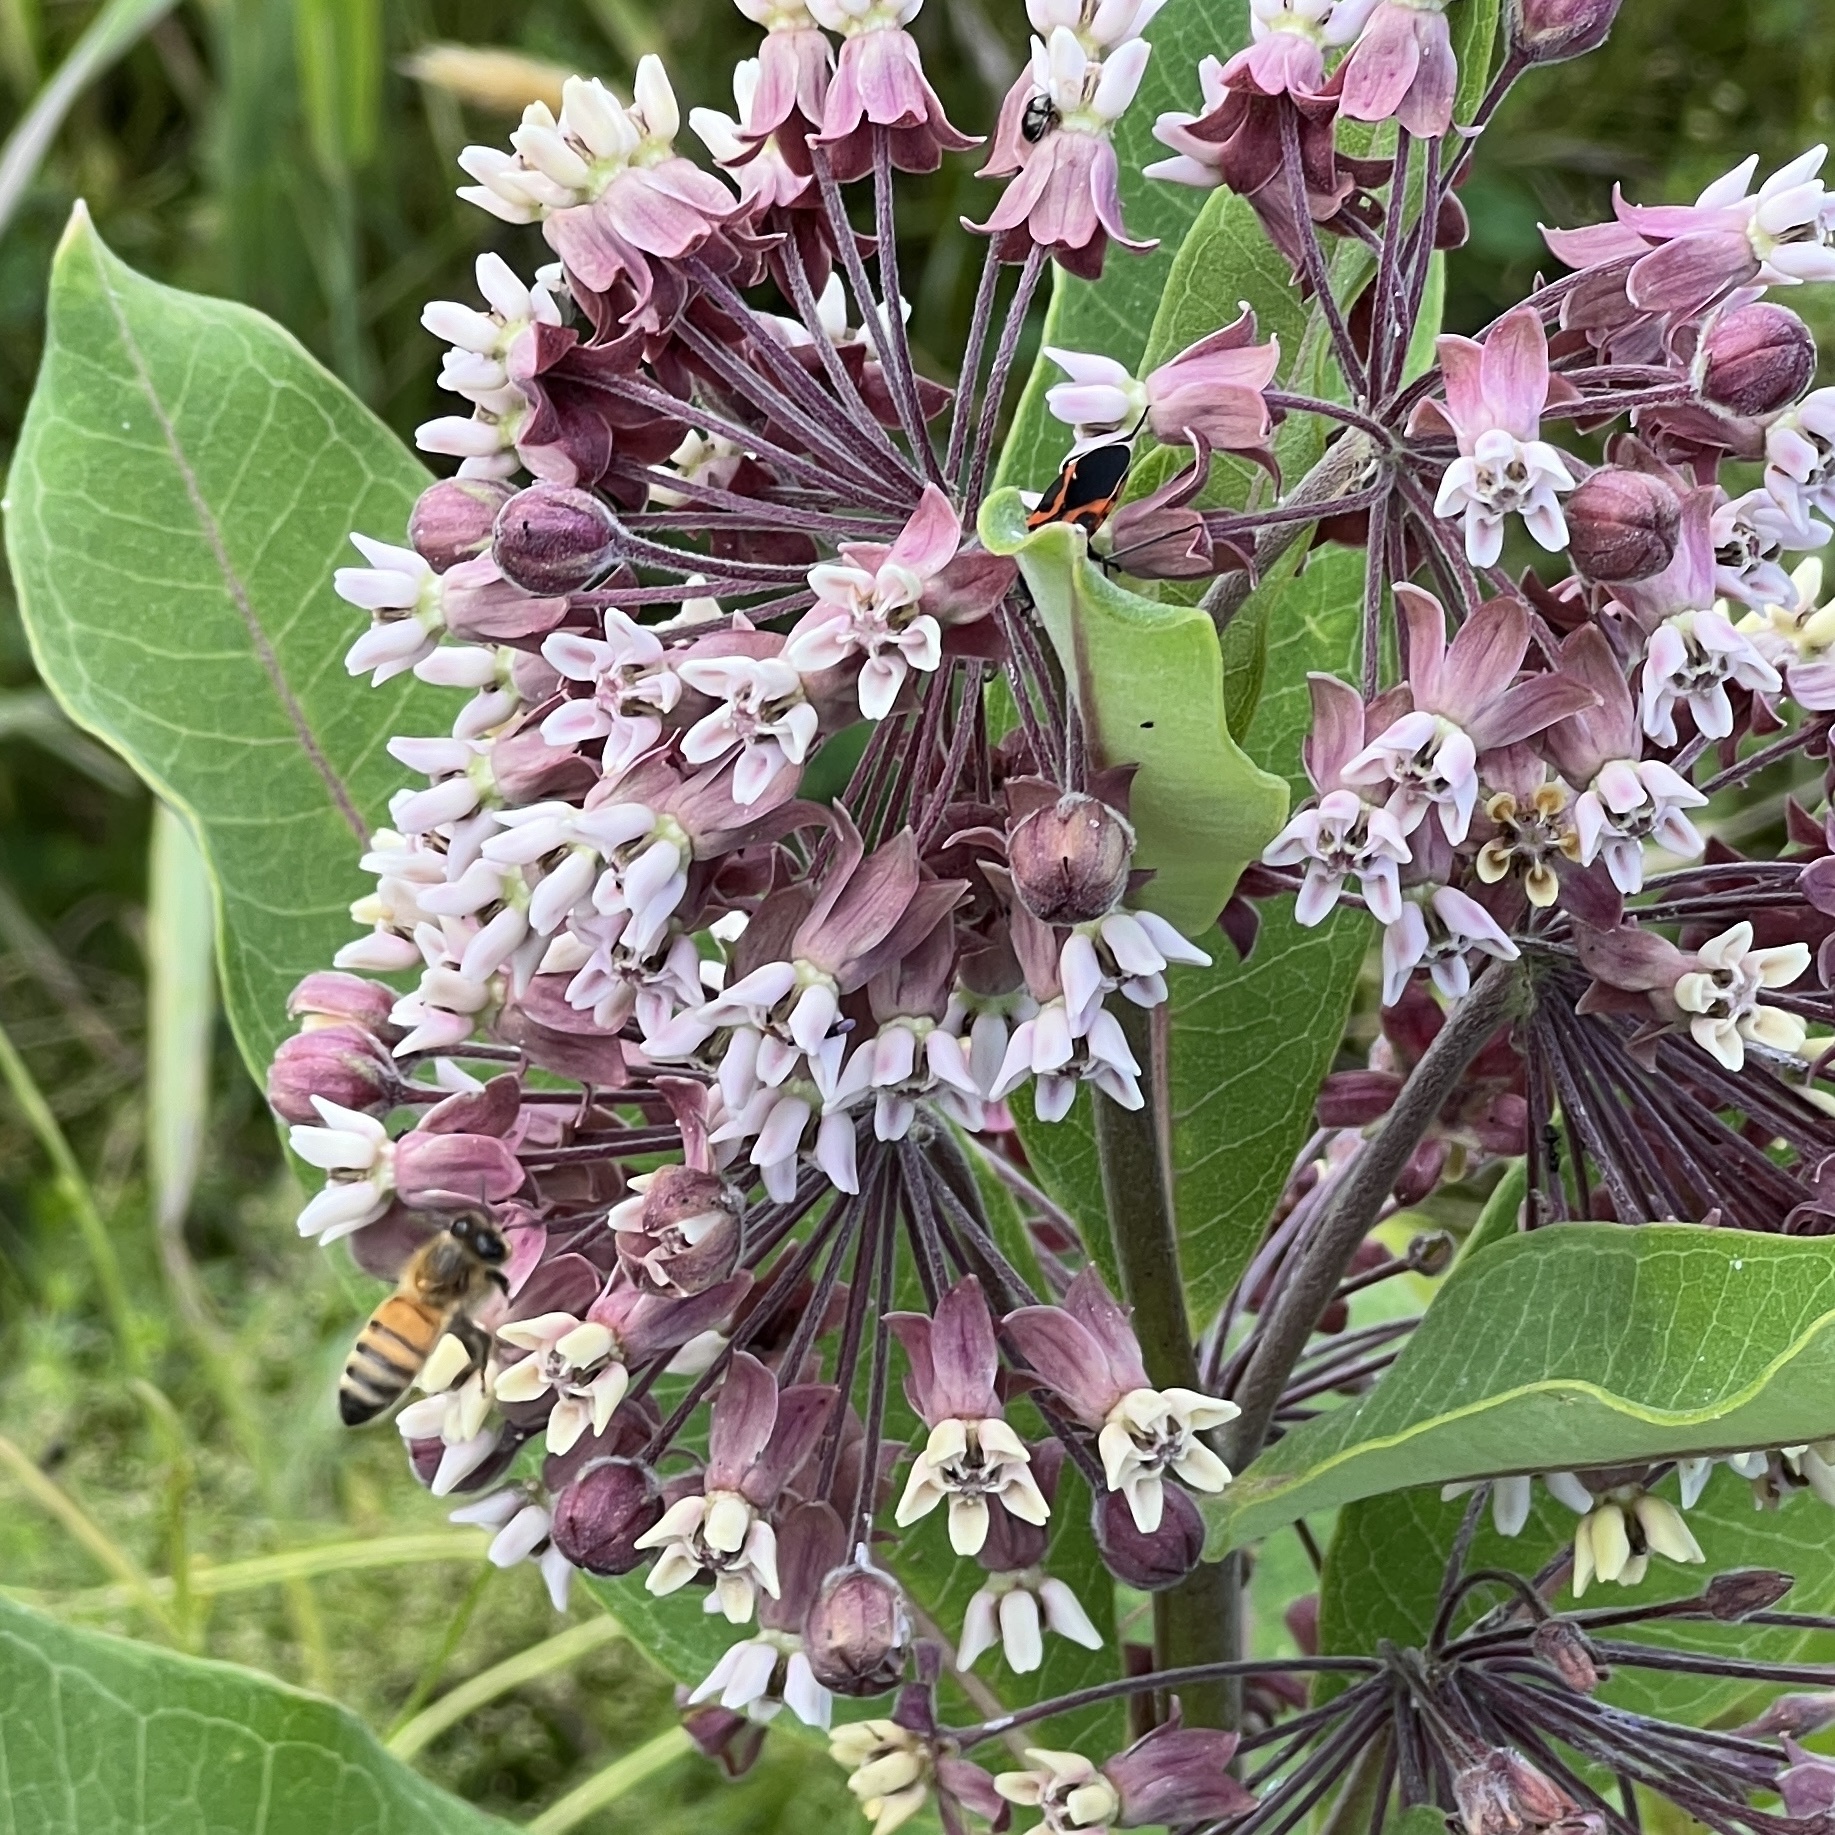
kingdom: Animalia
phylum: Arthropoda
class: Insecta
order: Hymenoptera
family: Apidae
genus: Apis
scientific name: Apis mellifera
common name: Honey bee
